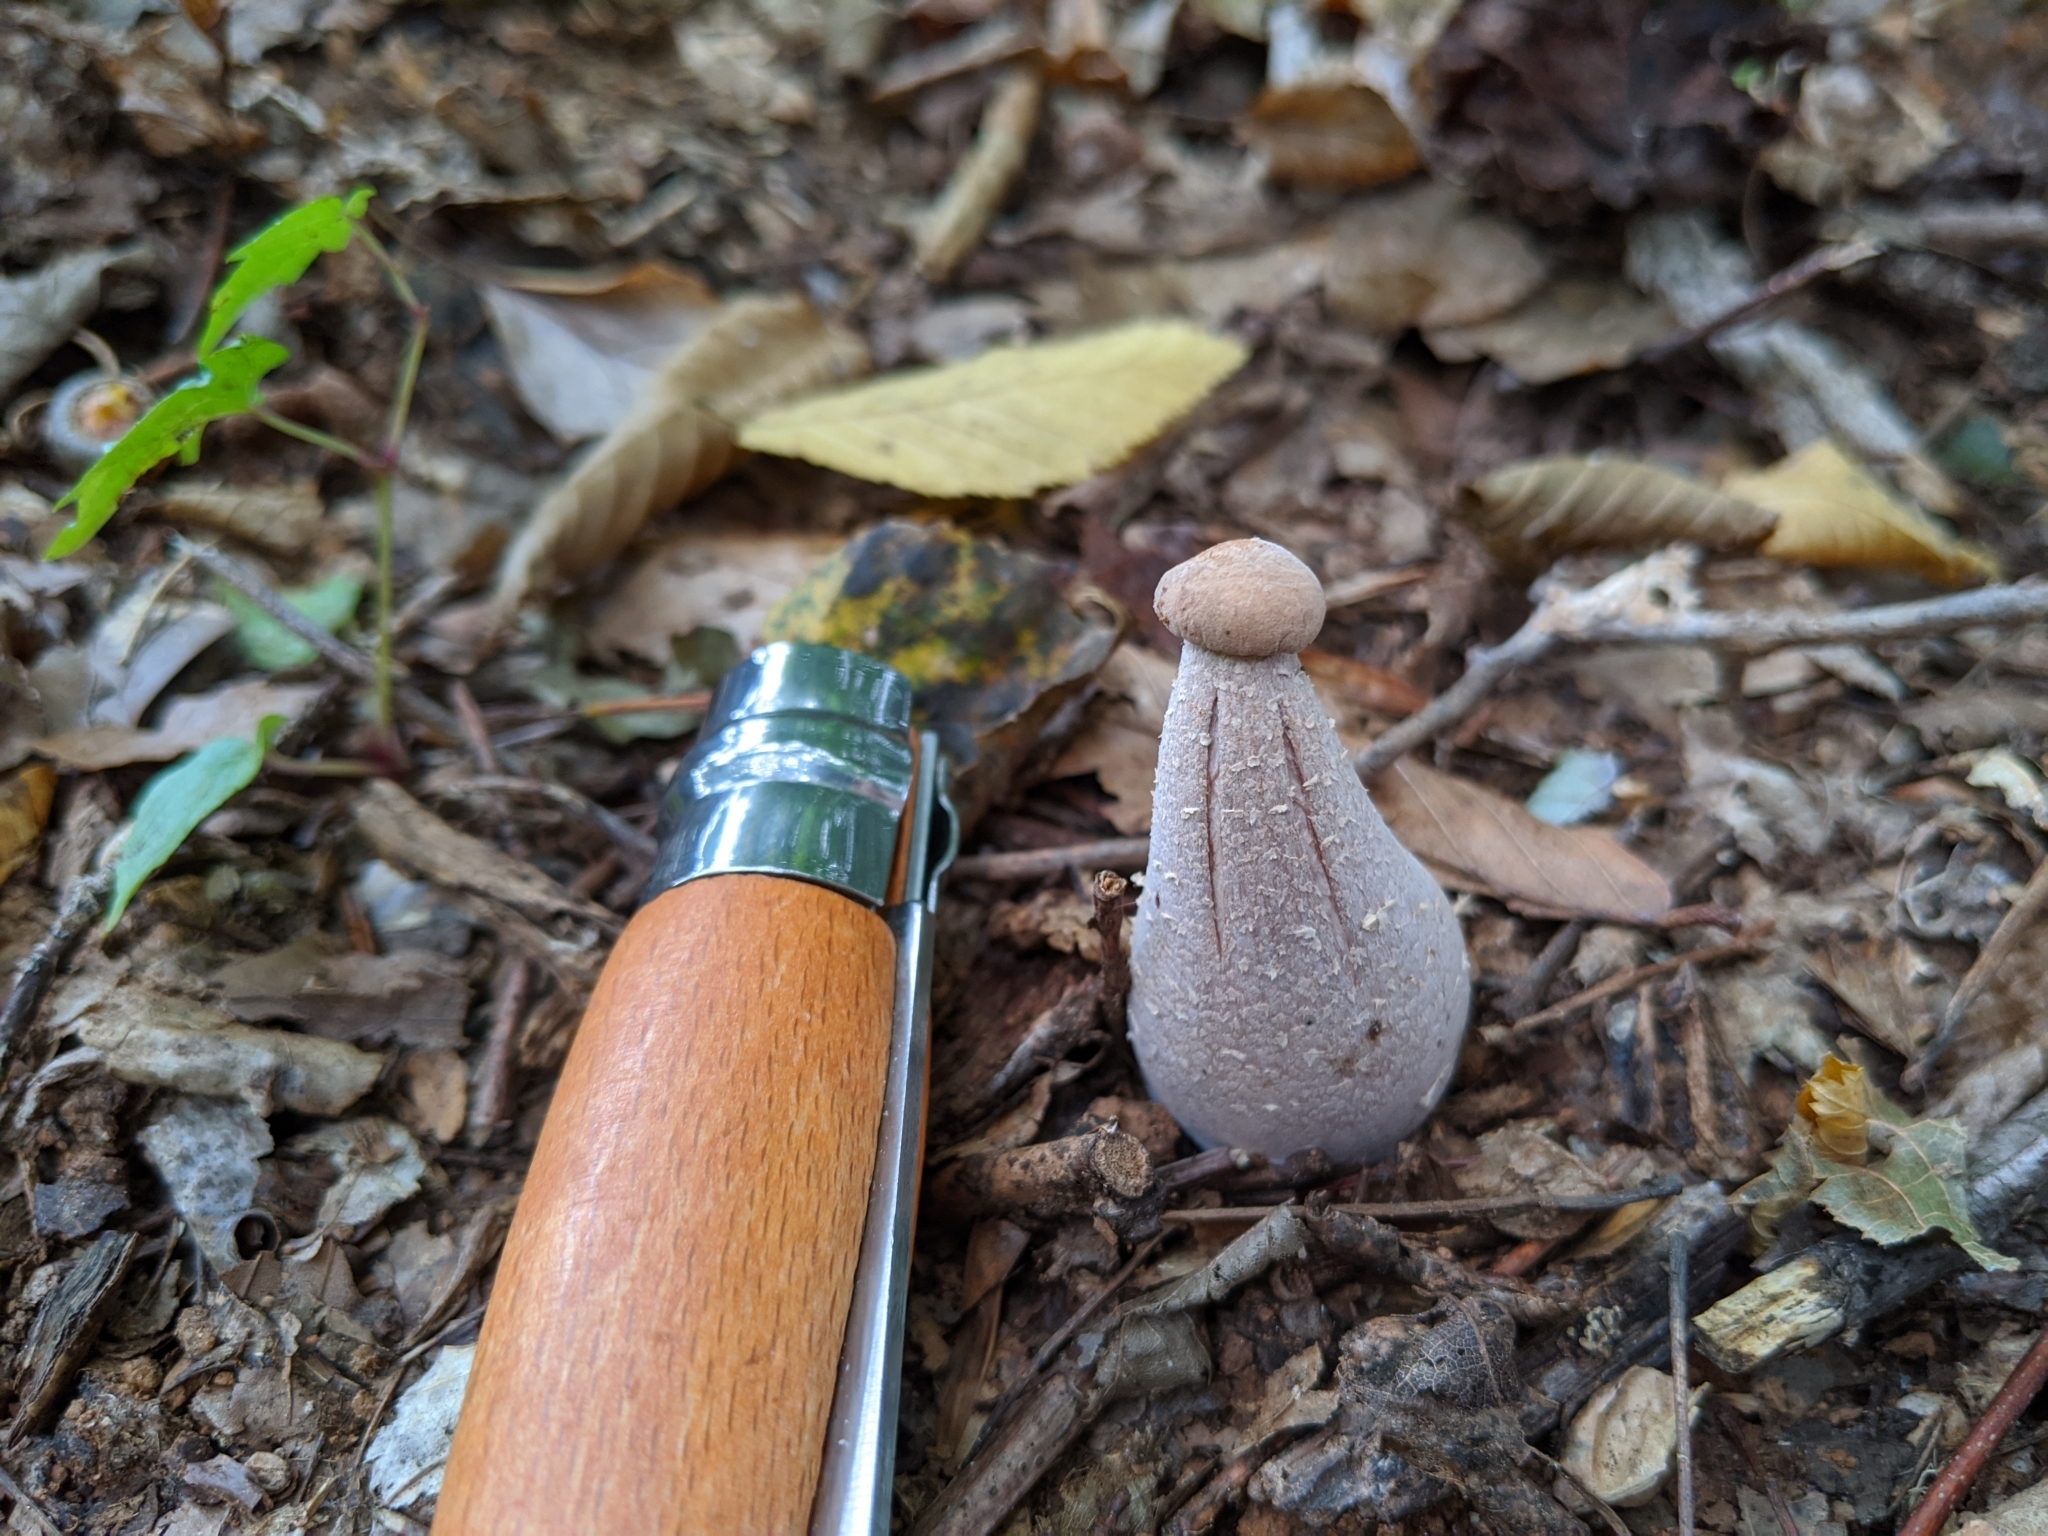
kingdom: Fungi
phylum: Basidiomycota
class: Agaricomycetes
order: Agaricales
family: Hydnangiaceae
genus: Laccaria
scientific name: Laccaria ochropurpurea
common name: Purple laccaria
